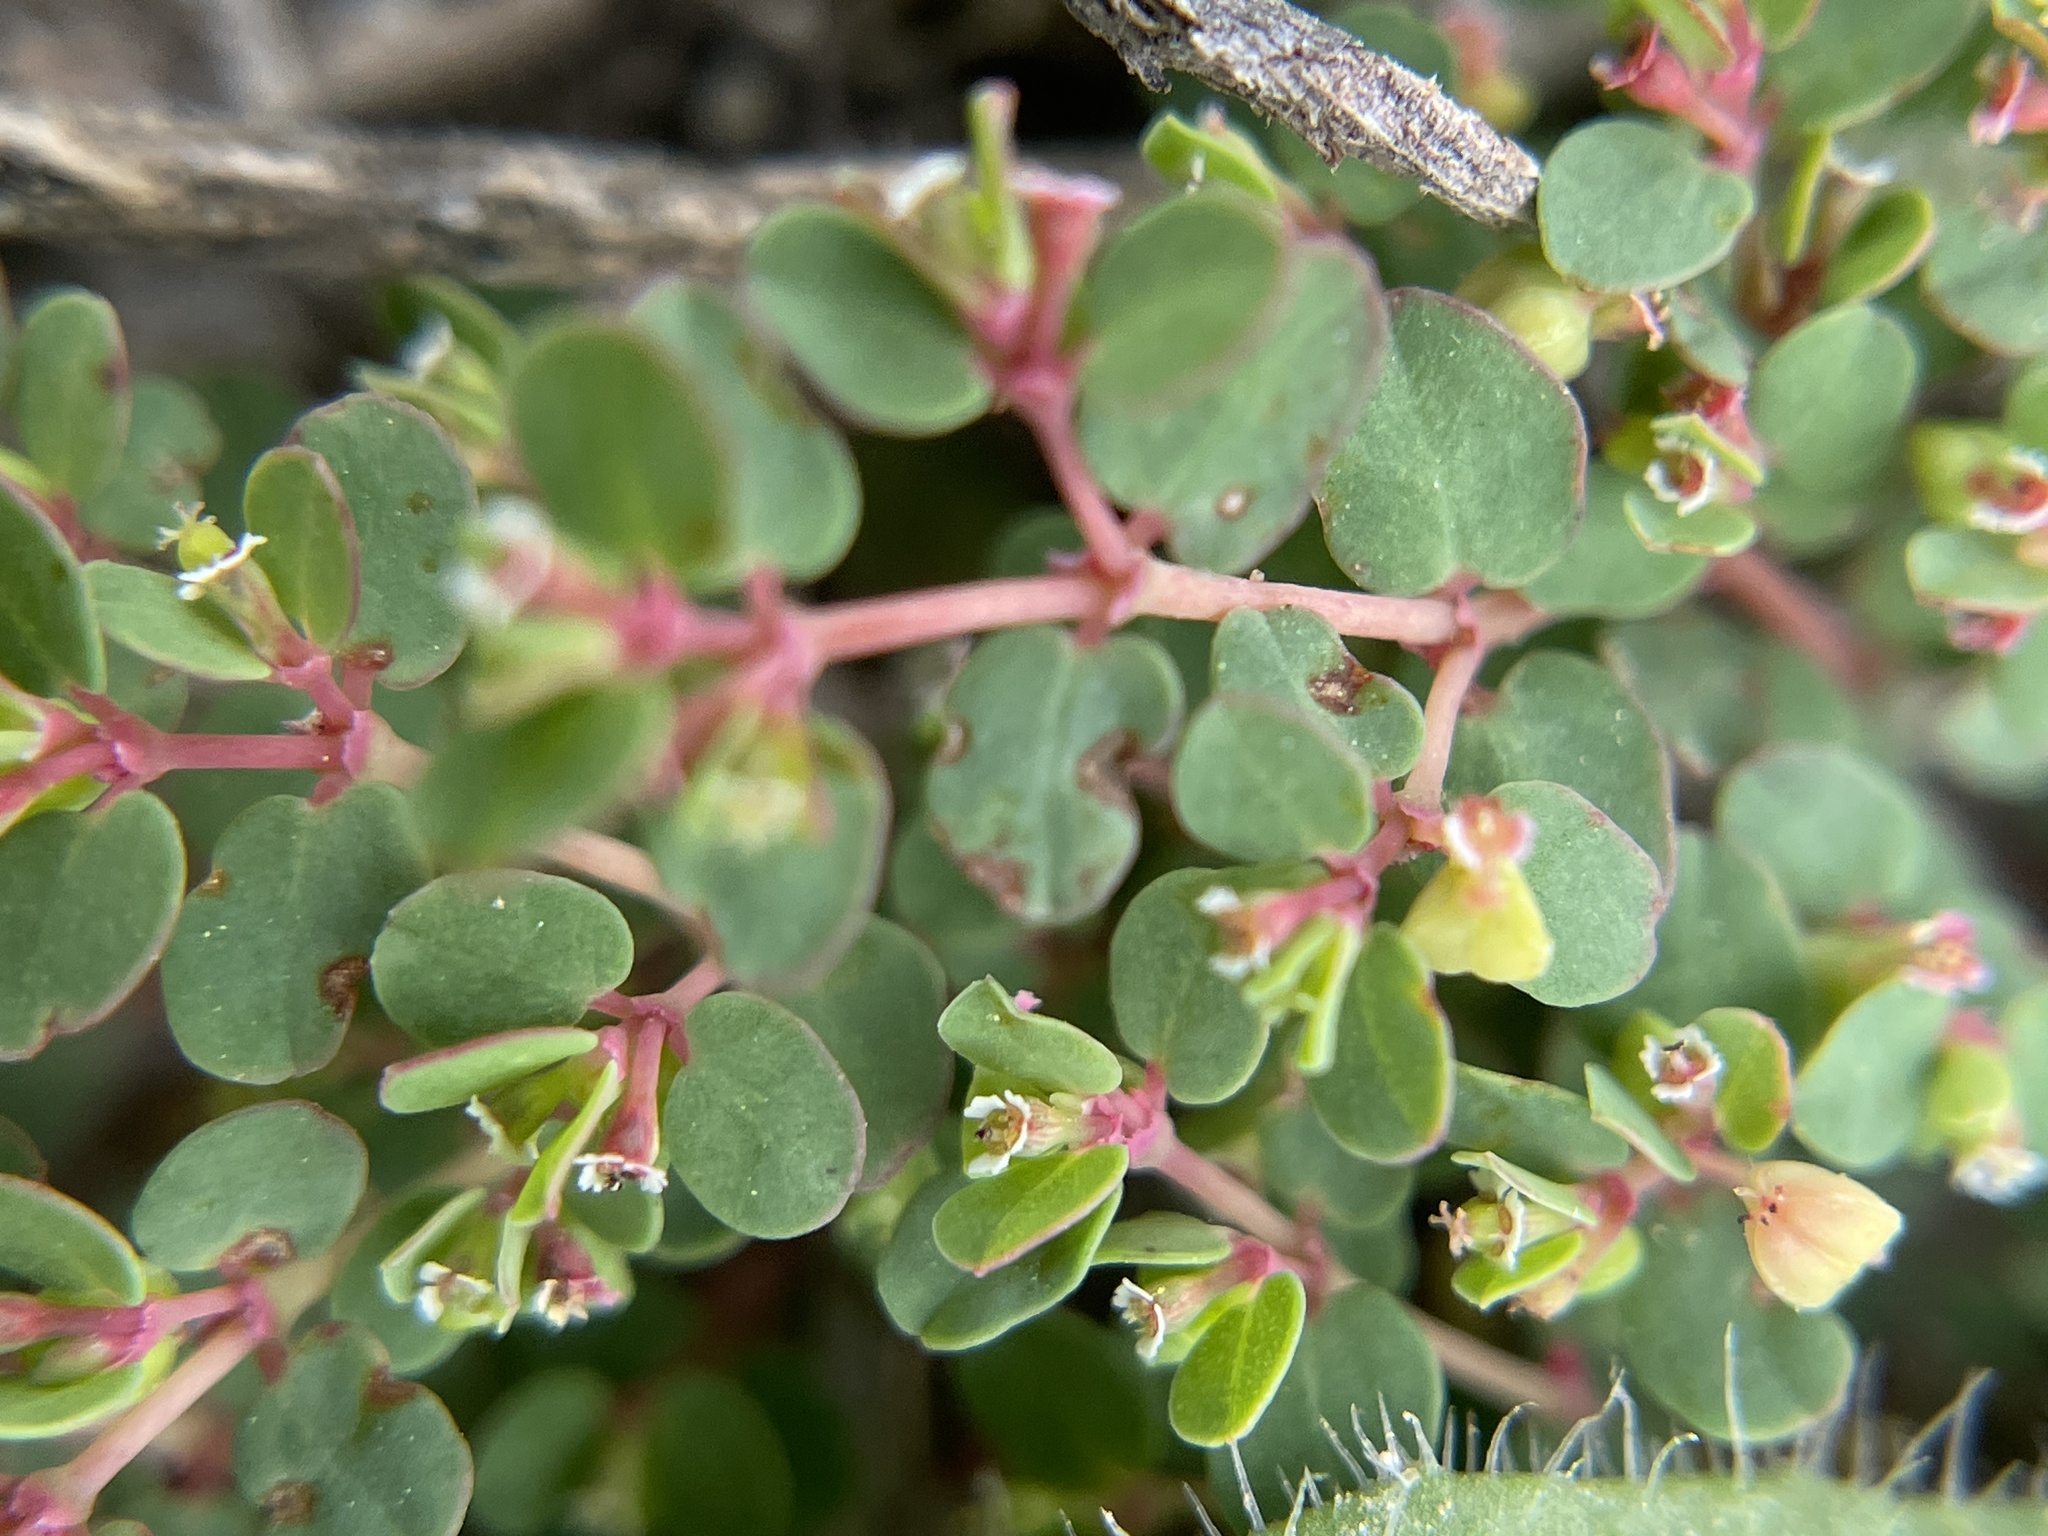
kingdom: Plantae
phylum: Tracheophyta
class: Magnoliopsida
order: Malpighiales
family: Euphorbiaceae
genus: Euphorbia
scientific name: Euphorbia serpens
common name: Matted sandmat
